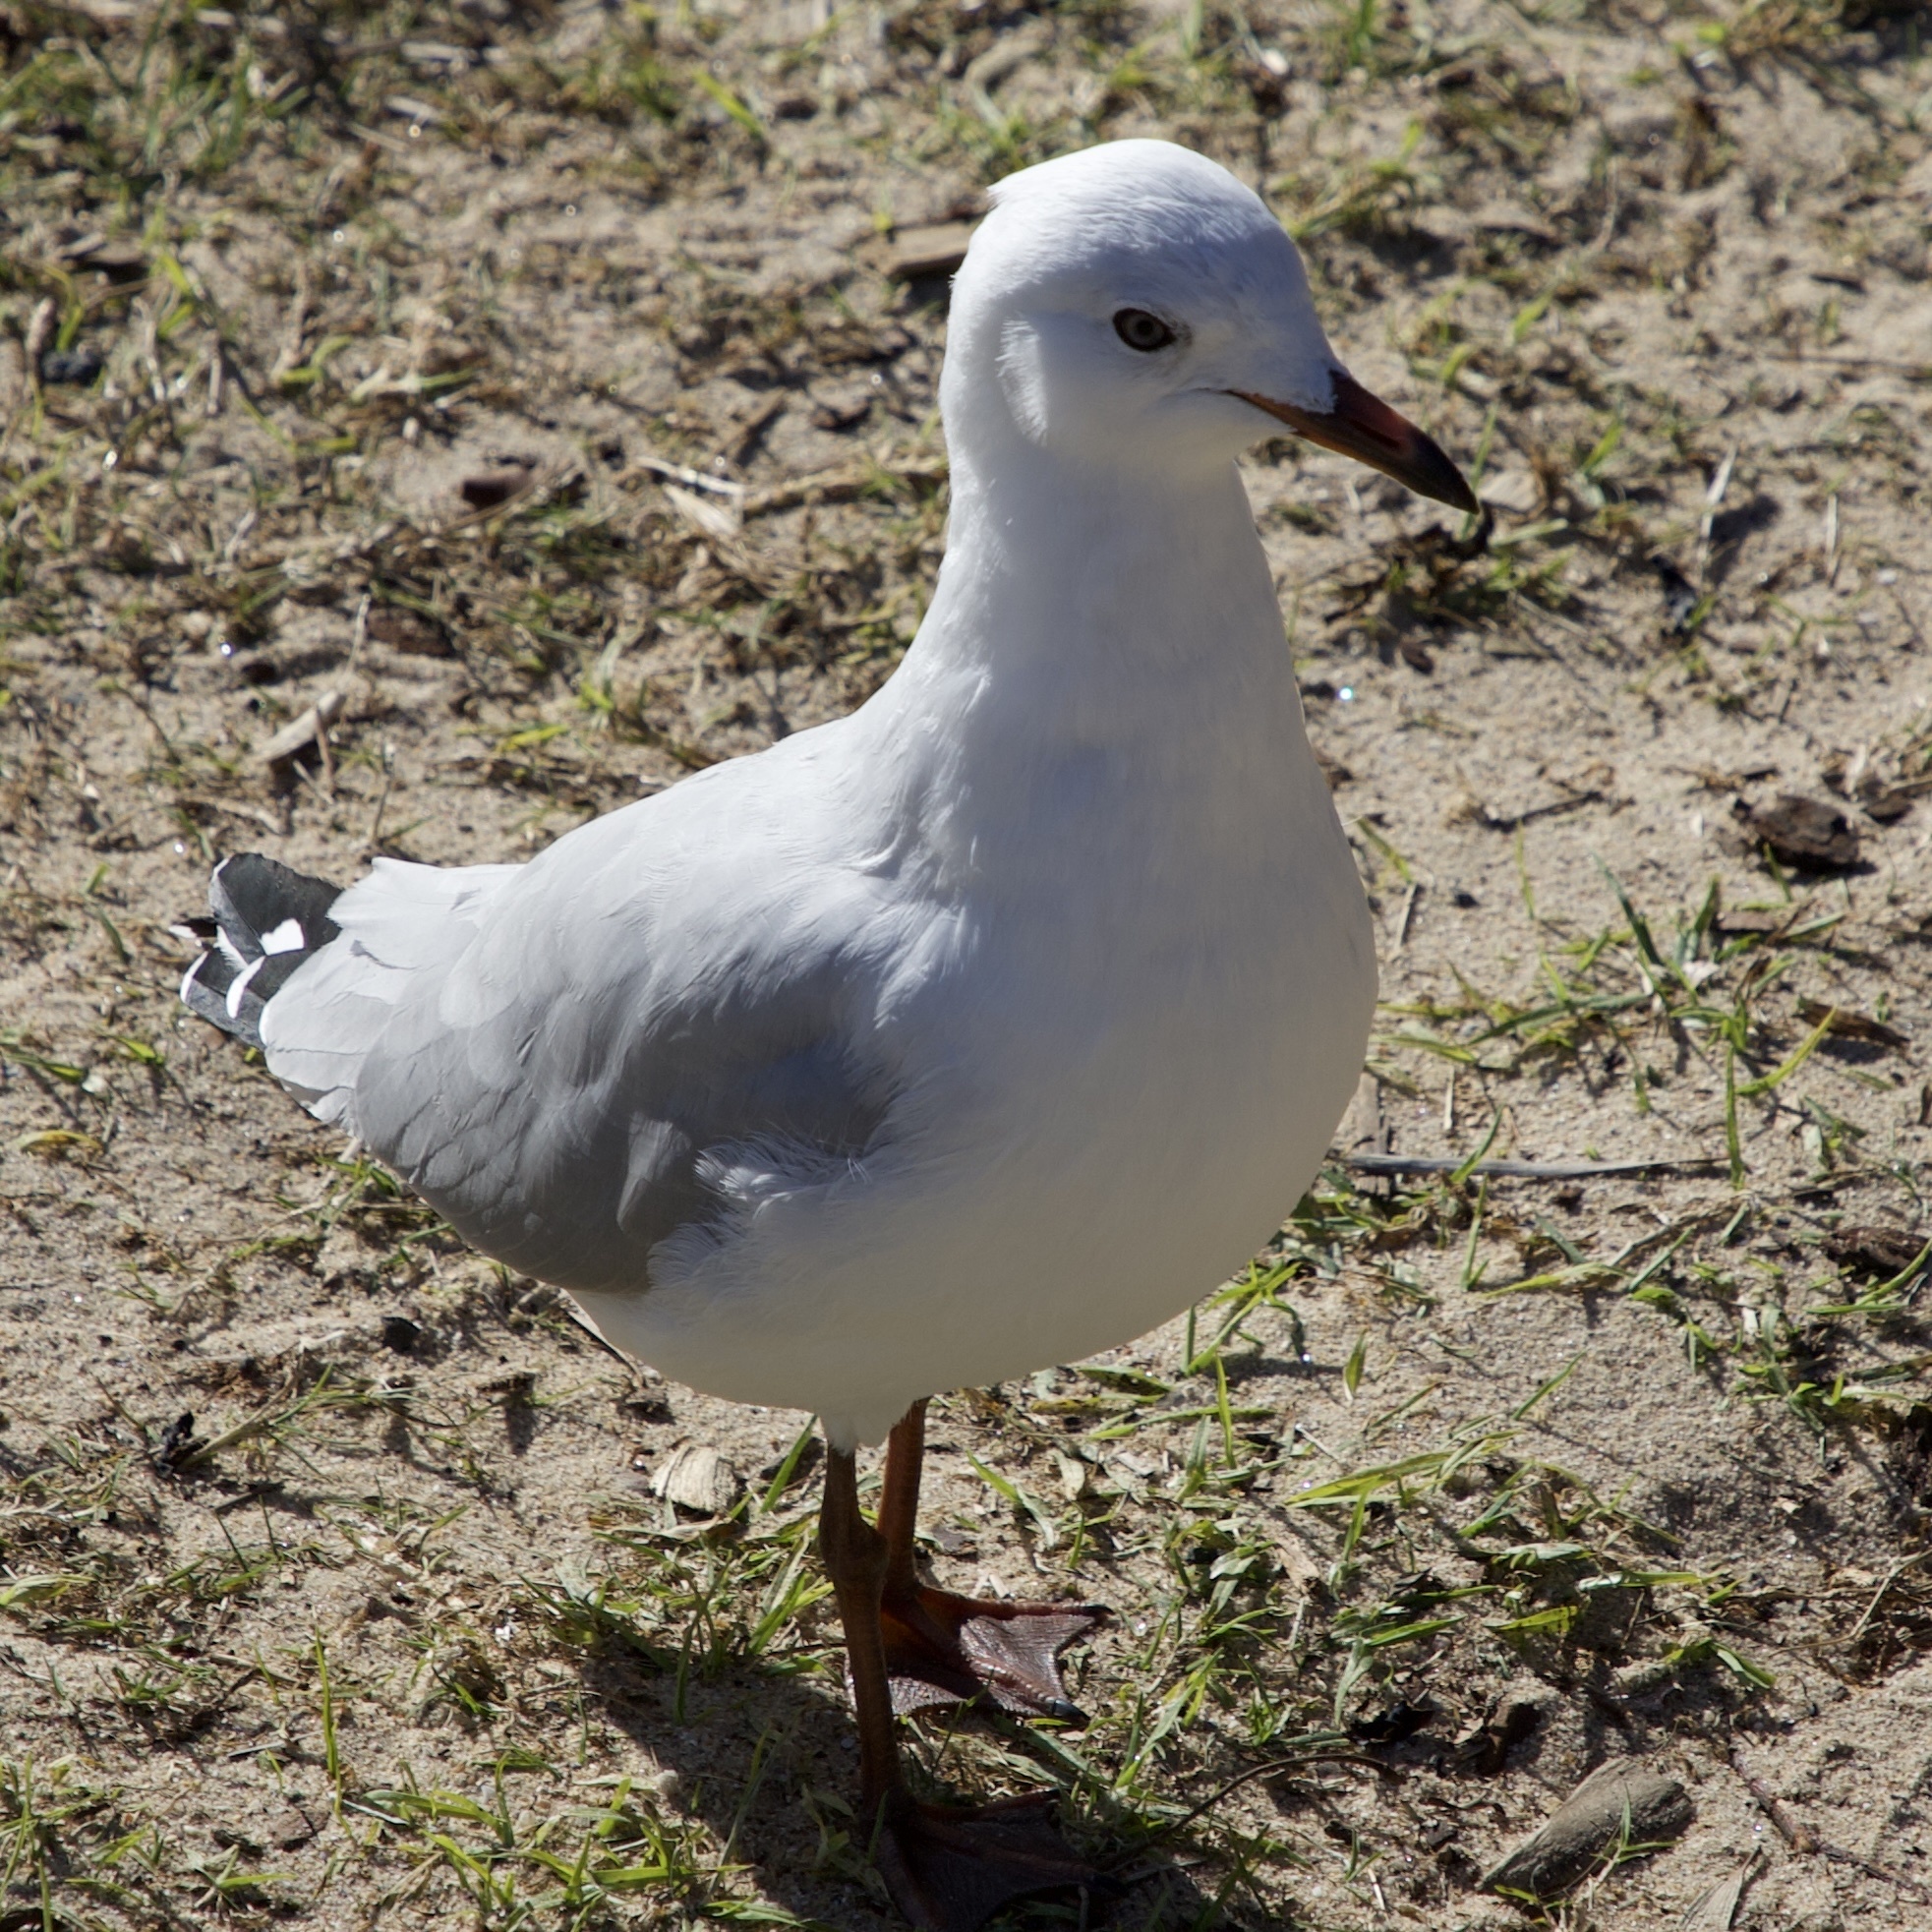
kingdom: Animalia
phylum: Chordata
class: Aves
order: Charadriiformes
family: Laridae
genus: Chroicocephalus
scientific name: Chroicocephalus novaehollandiae
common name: Silver gull
